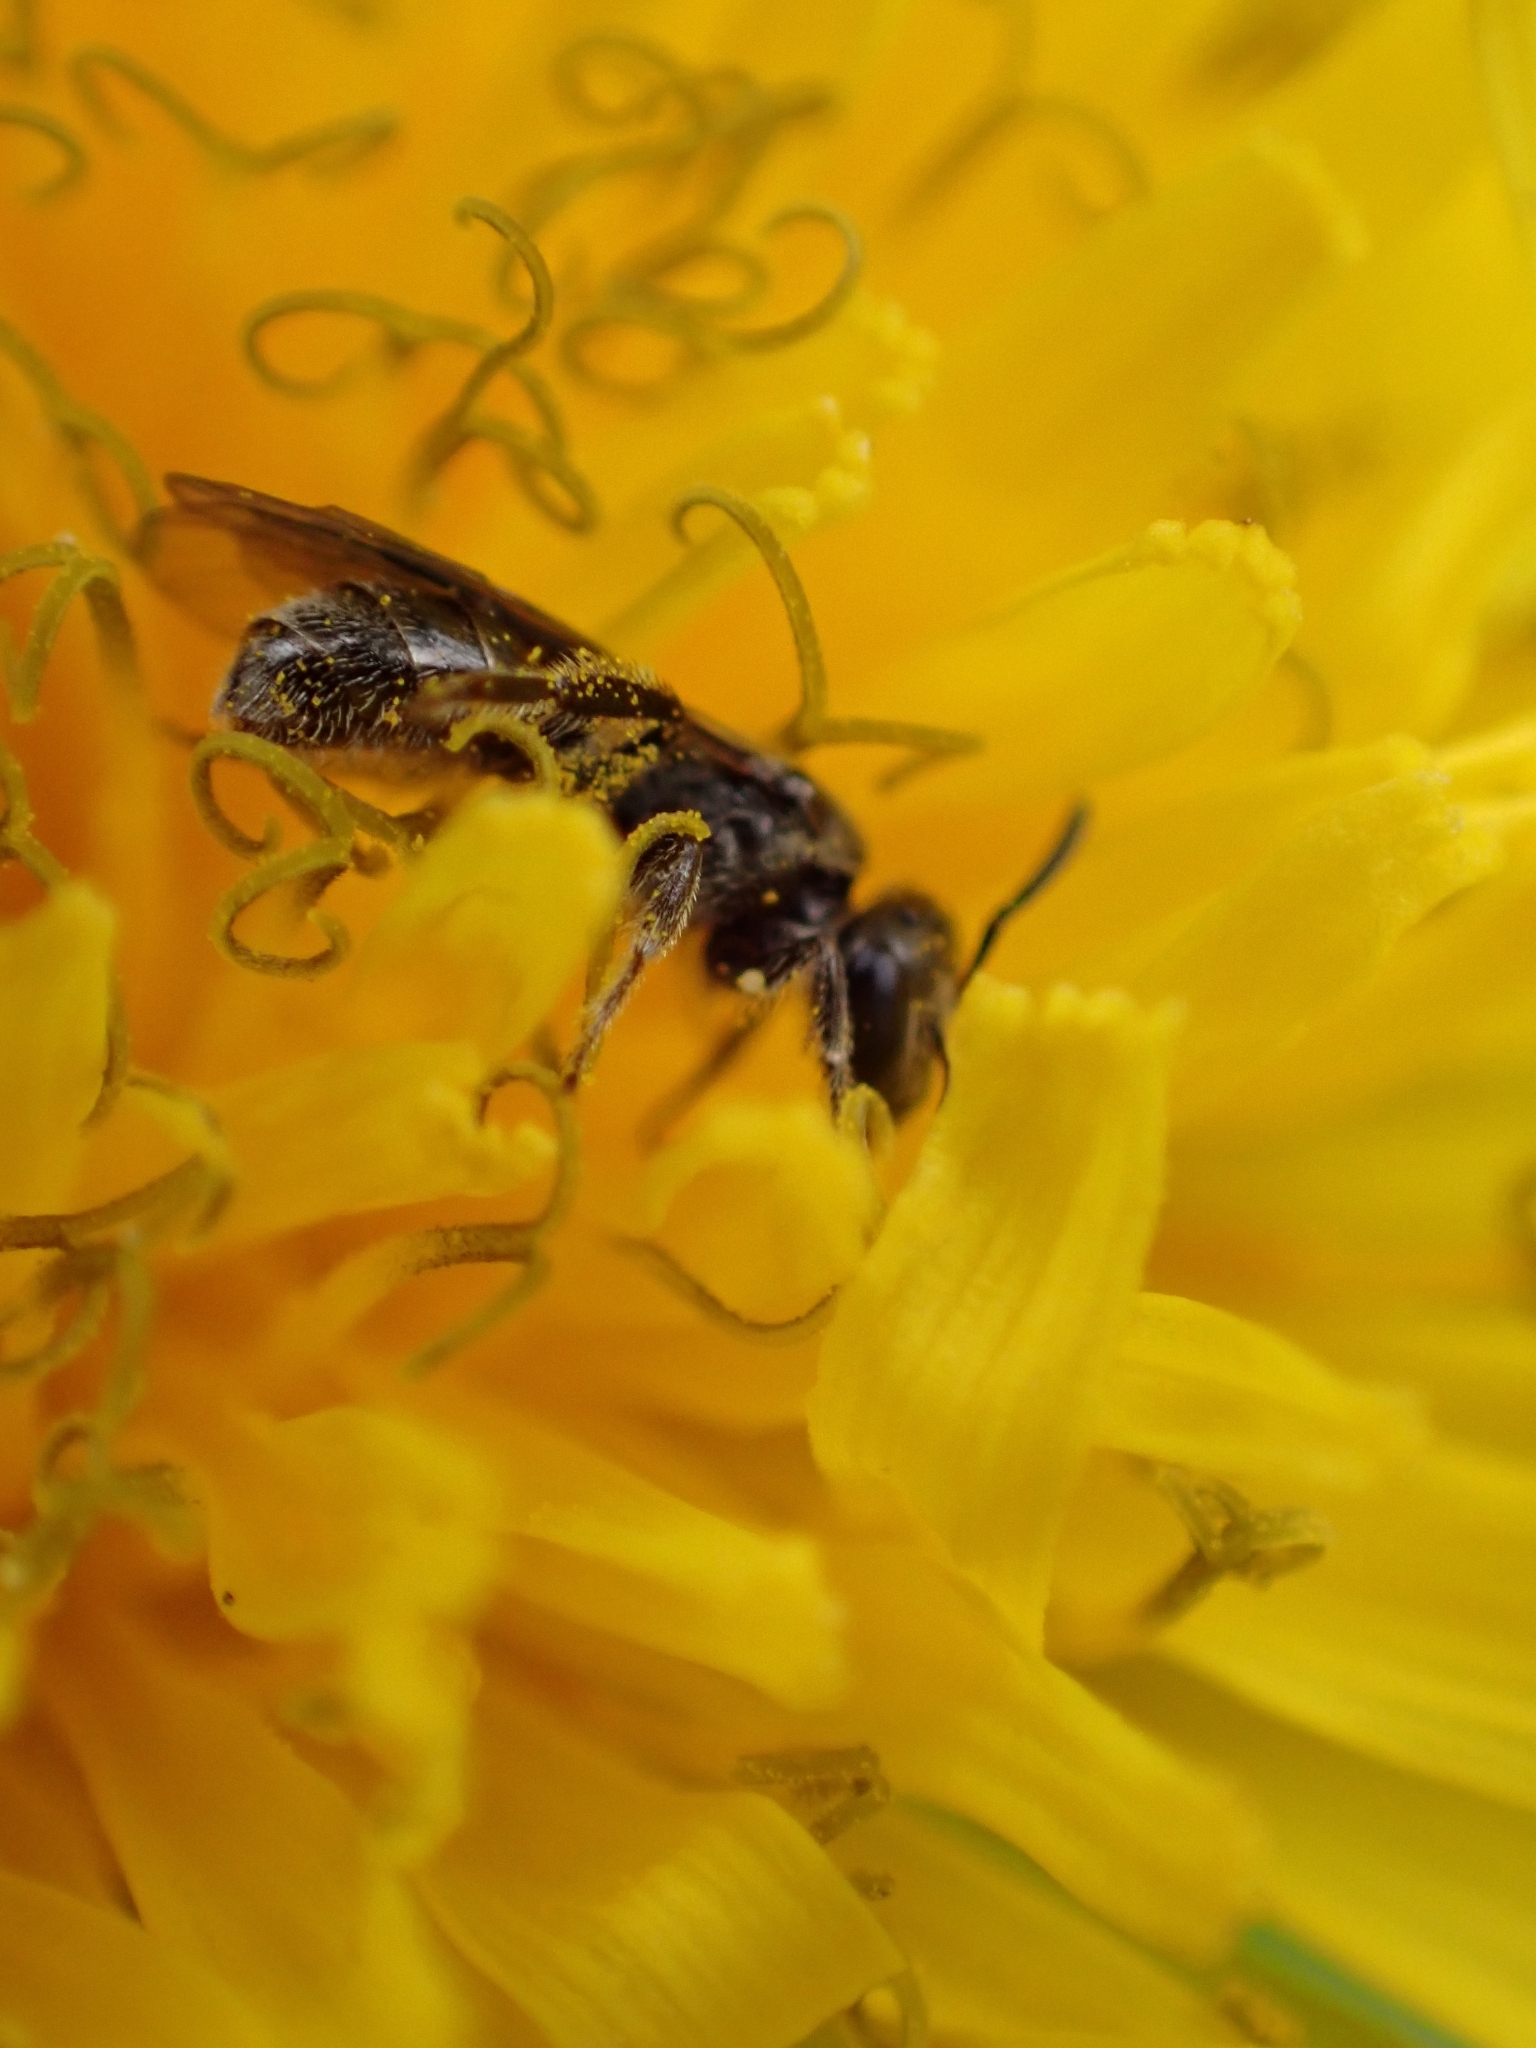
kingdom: Animalia
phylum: Arthropoda
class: Insecta
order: Hymenoptera
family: Halictidae
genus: Lasioglossum
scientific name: Lasioglossum sordidum
